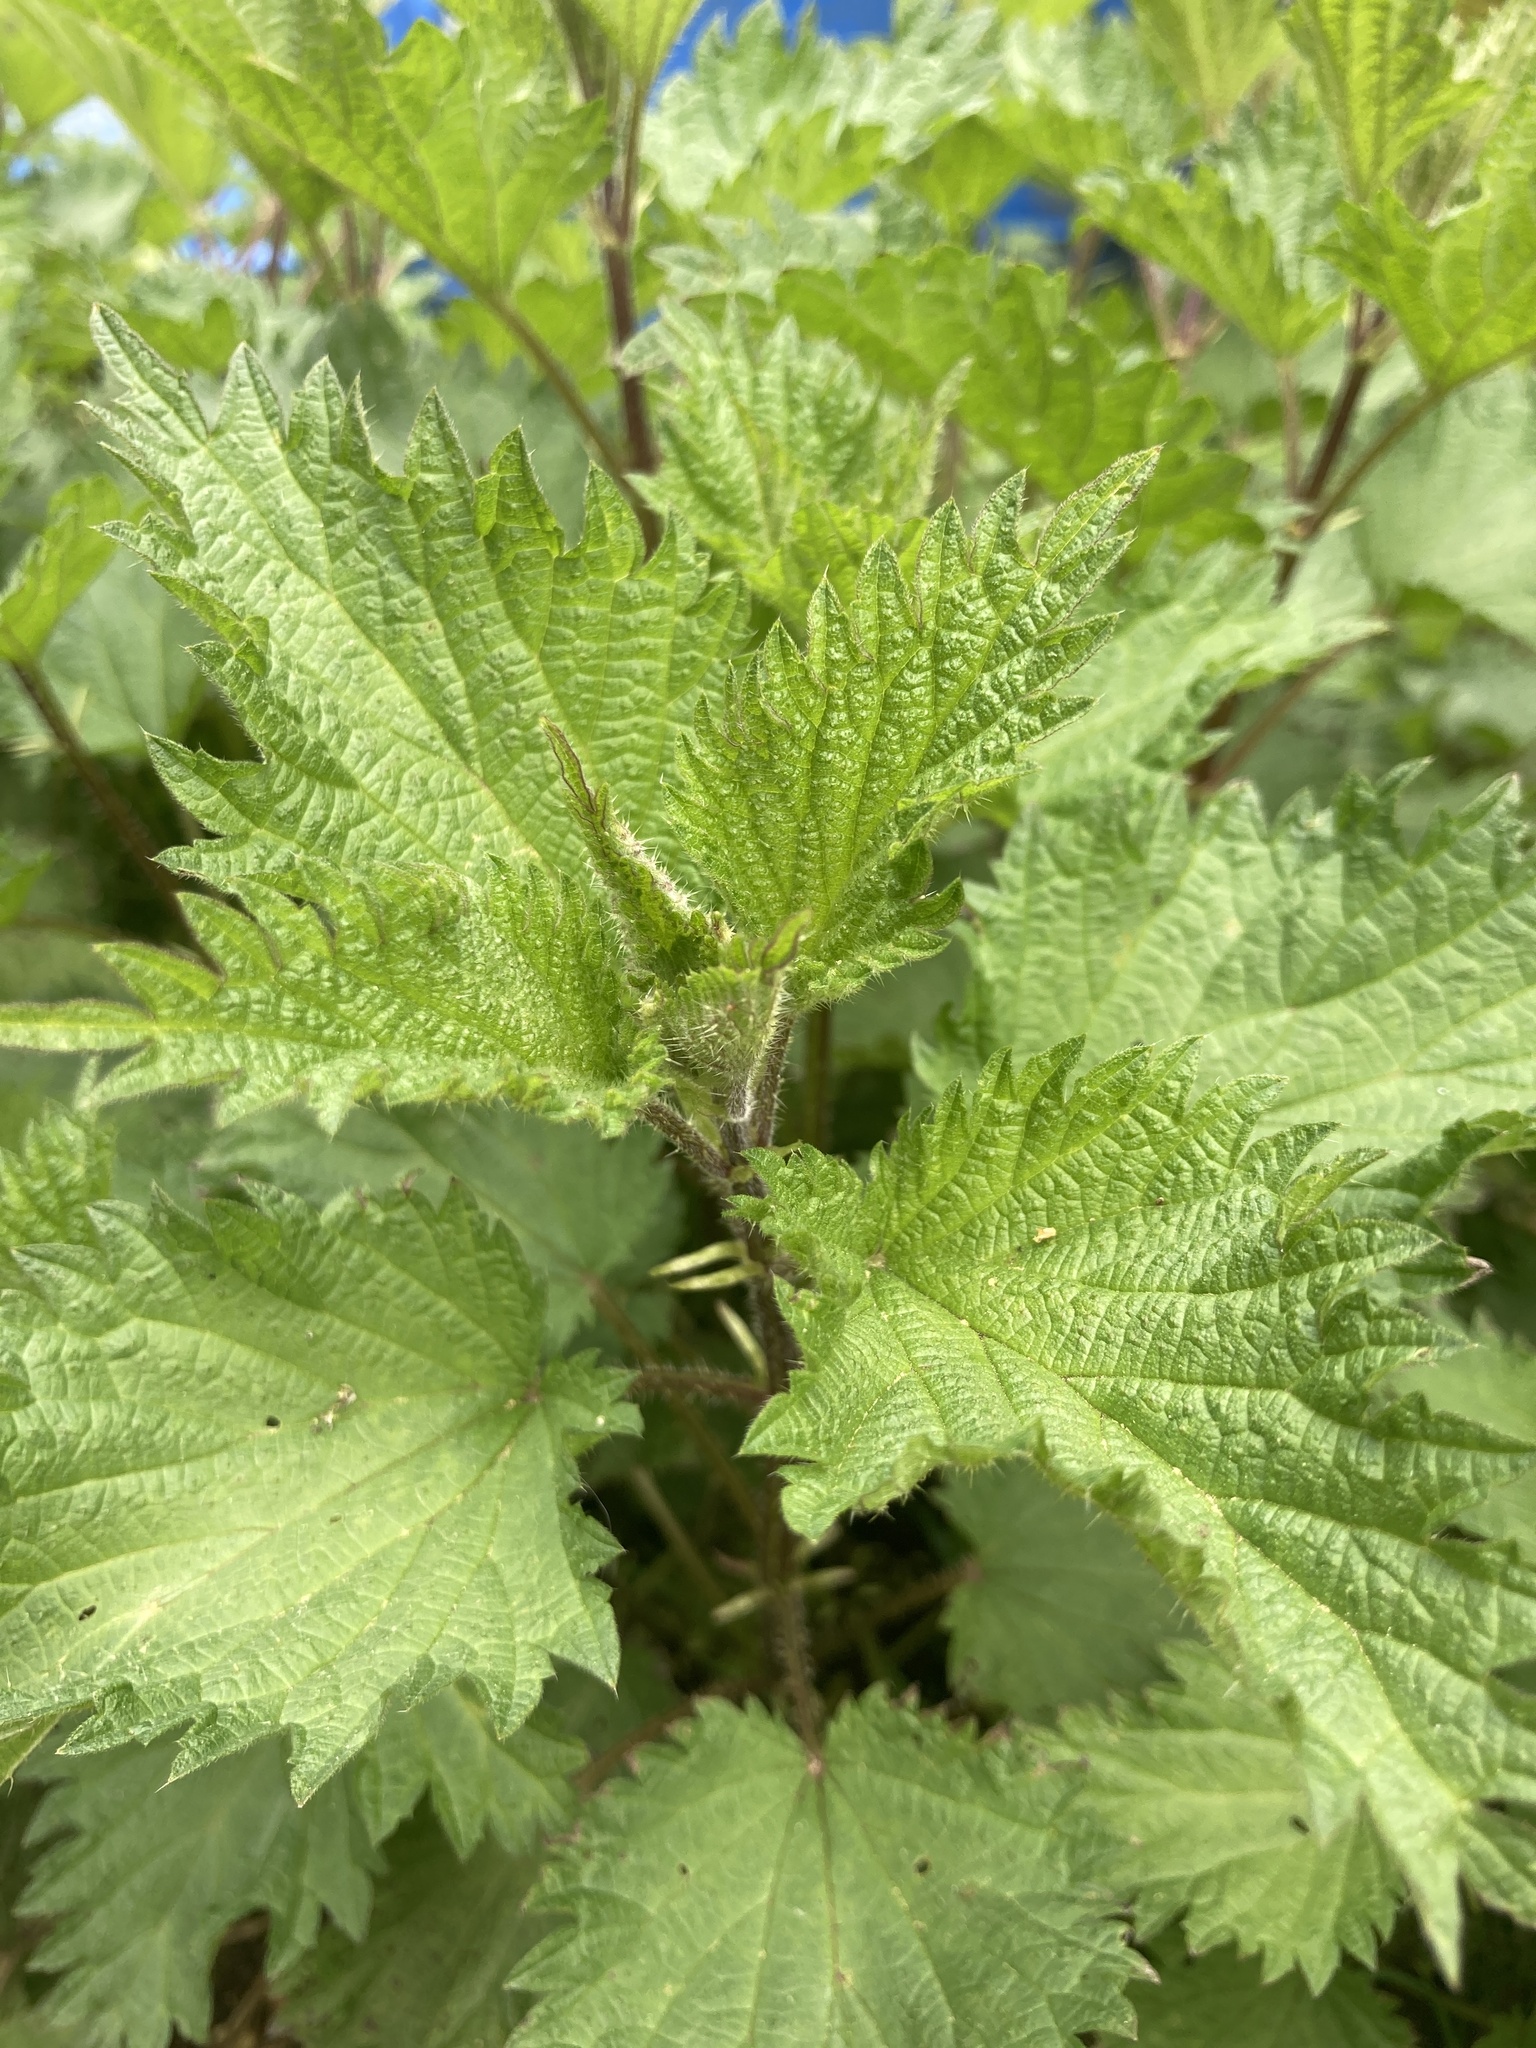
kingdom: Plantae
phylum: Tracheophyta
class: Magnoliopsida
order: Rosales
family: Urticaceae
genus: Urtica
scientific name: Urtica dioica
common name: Common nettle
